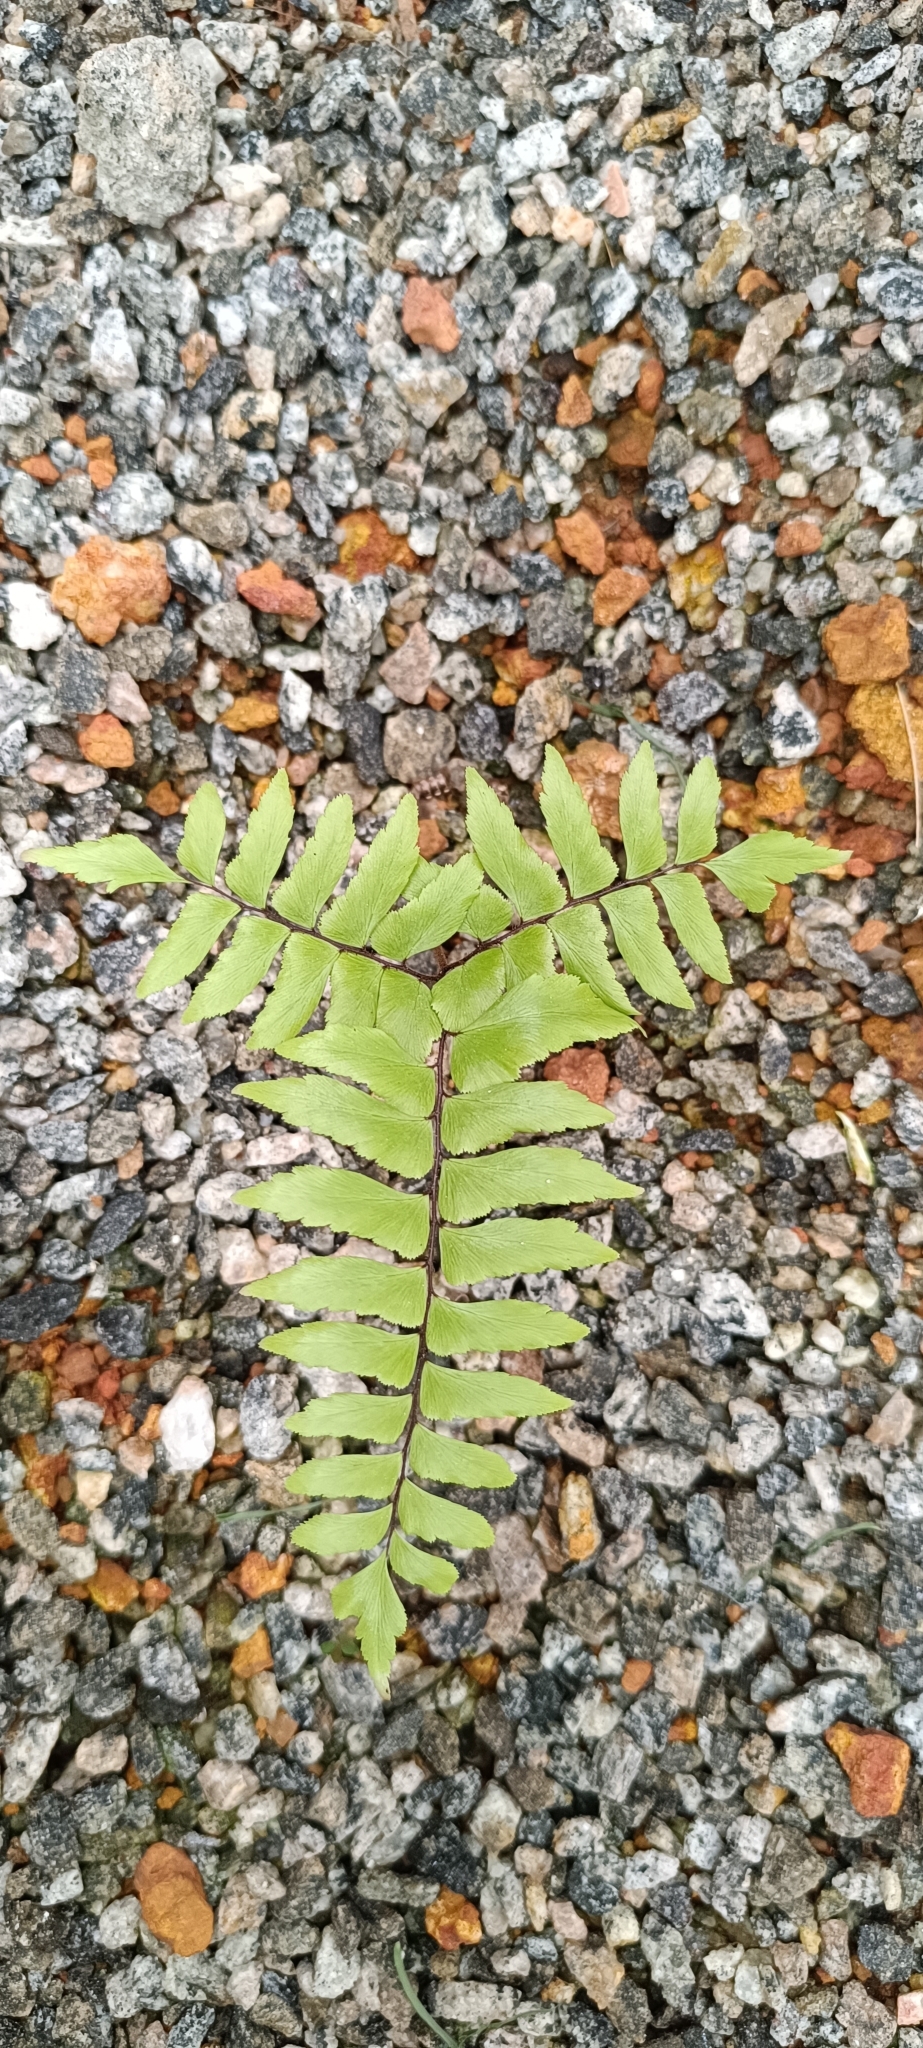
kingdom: Plantae
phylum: Tracheophyta
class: Polypodiopsida
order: Polypodiales
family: Pteridaceae
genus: Adiantum
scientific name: Adiantum latifolium
